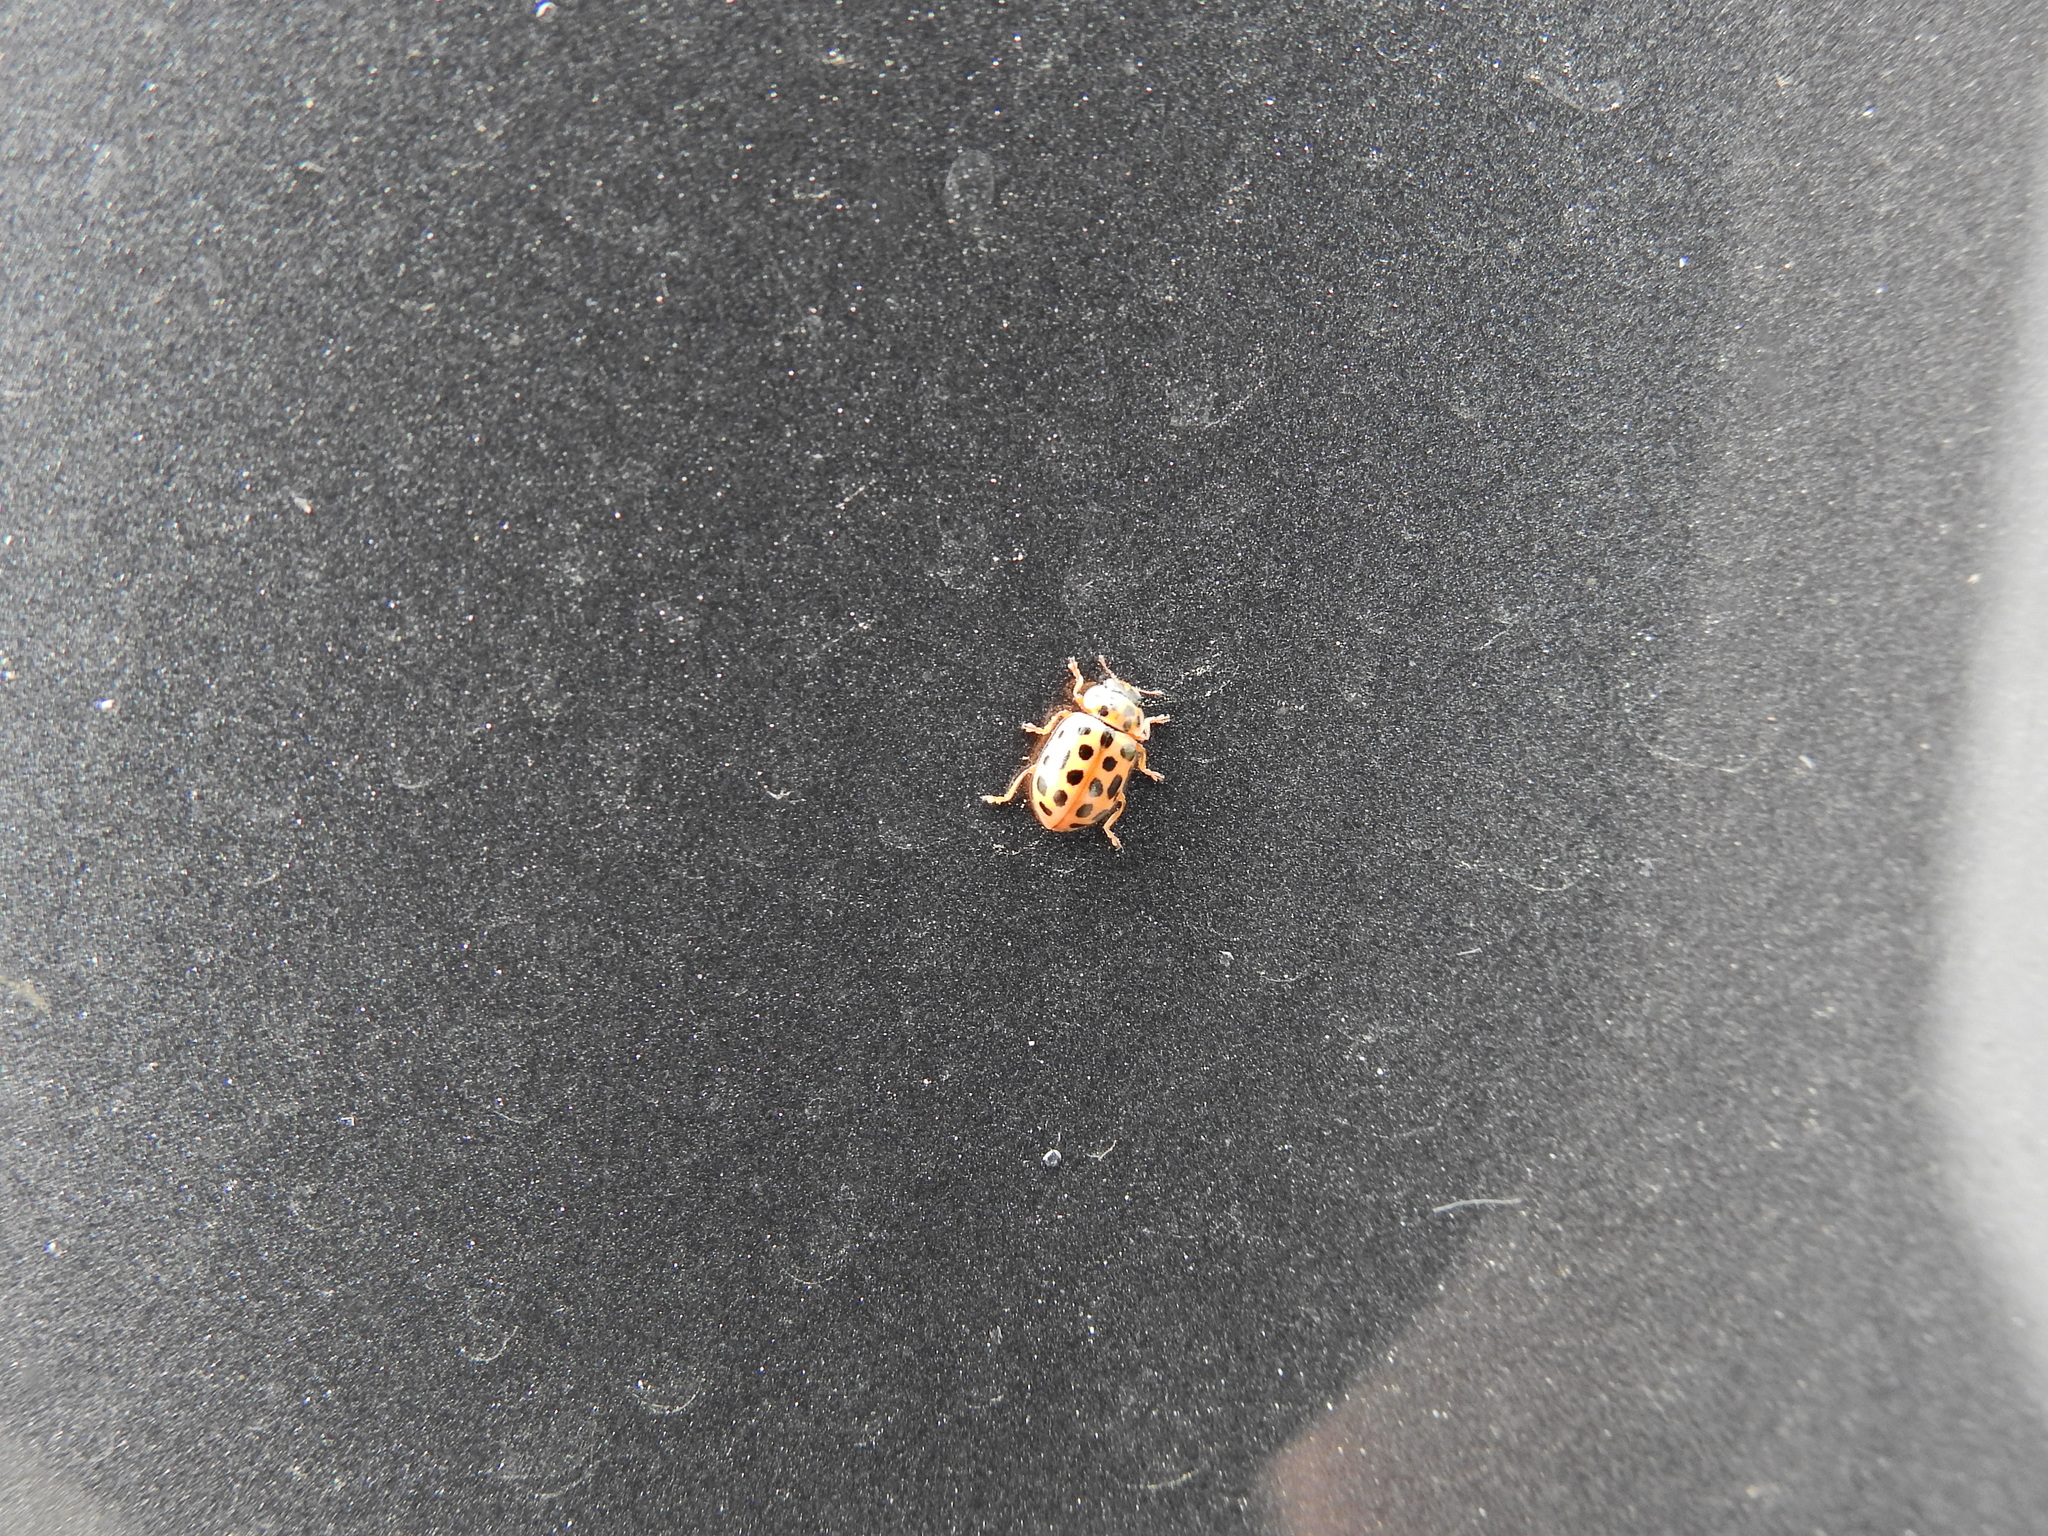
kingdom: Animalia
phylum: Arthropoda
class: Insecta
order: Coleoptera
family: Coccinellidae
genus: Anisosticta
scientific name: Anisosticta novemdecimpunctata
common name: Water ladybird
